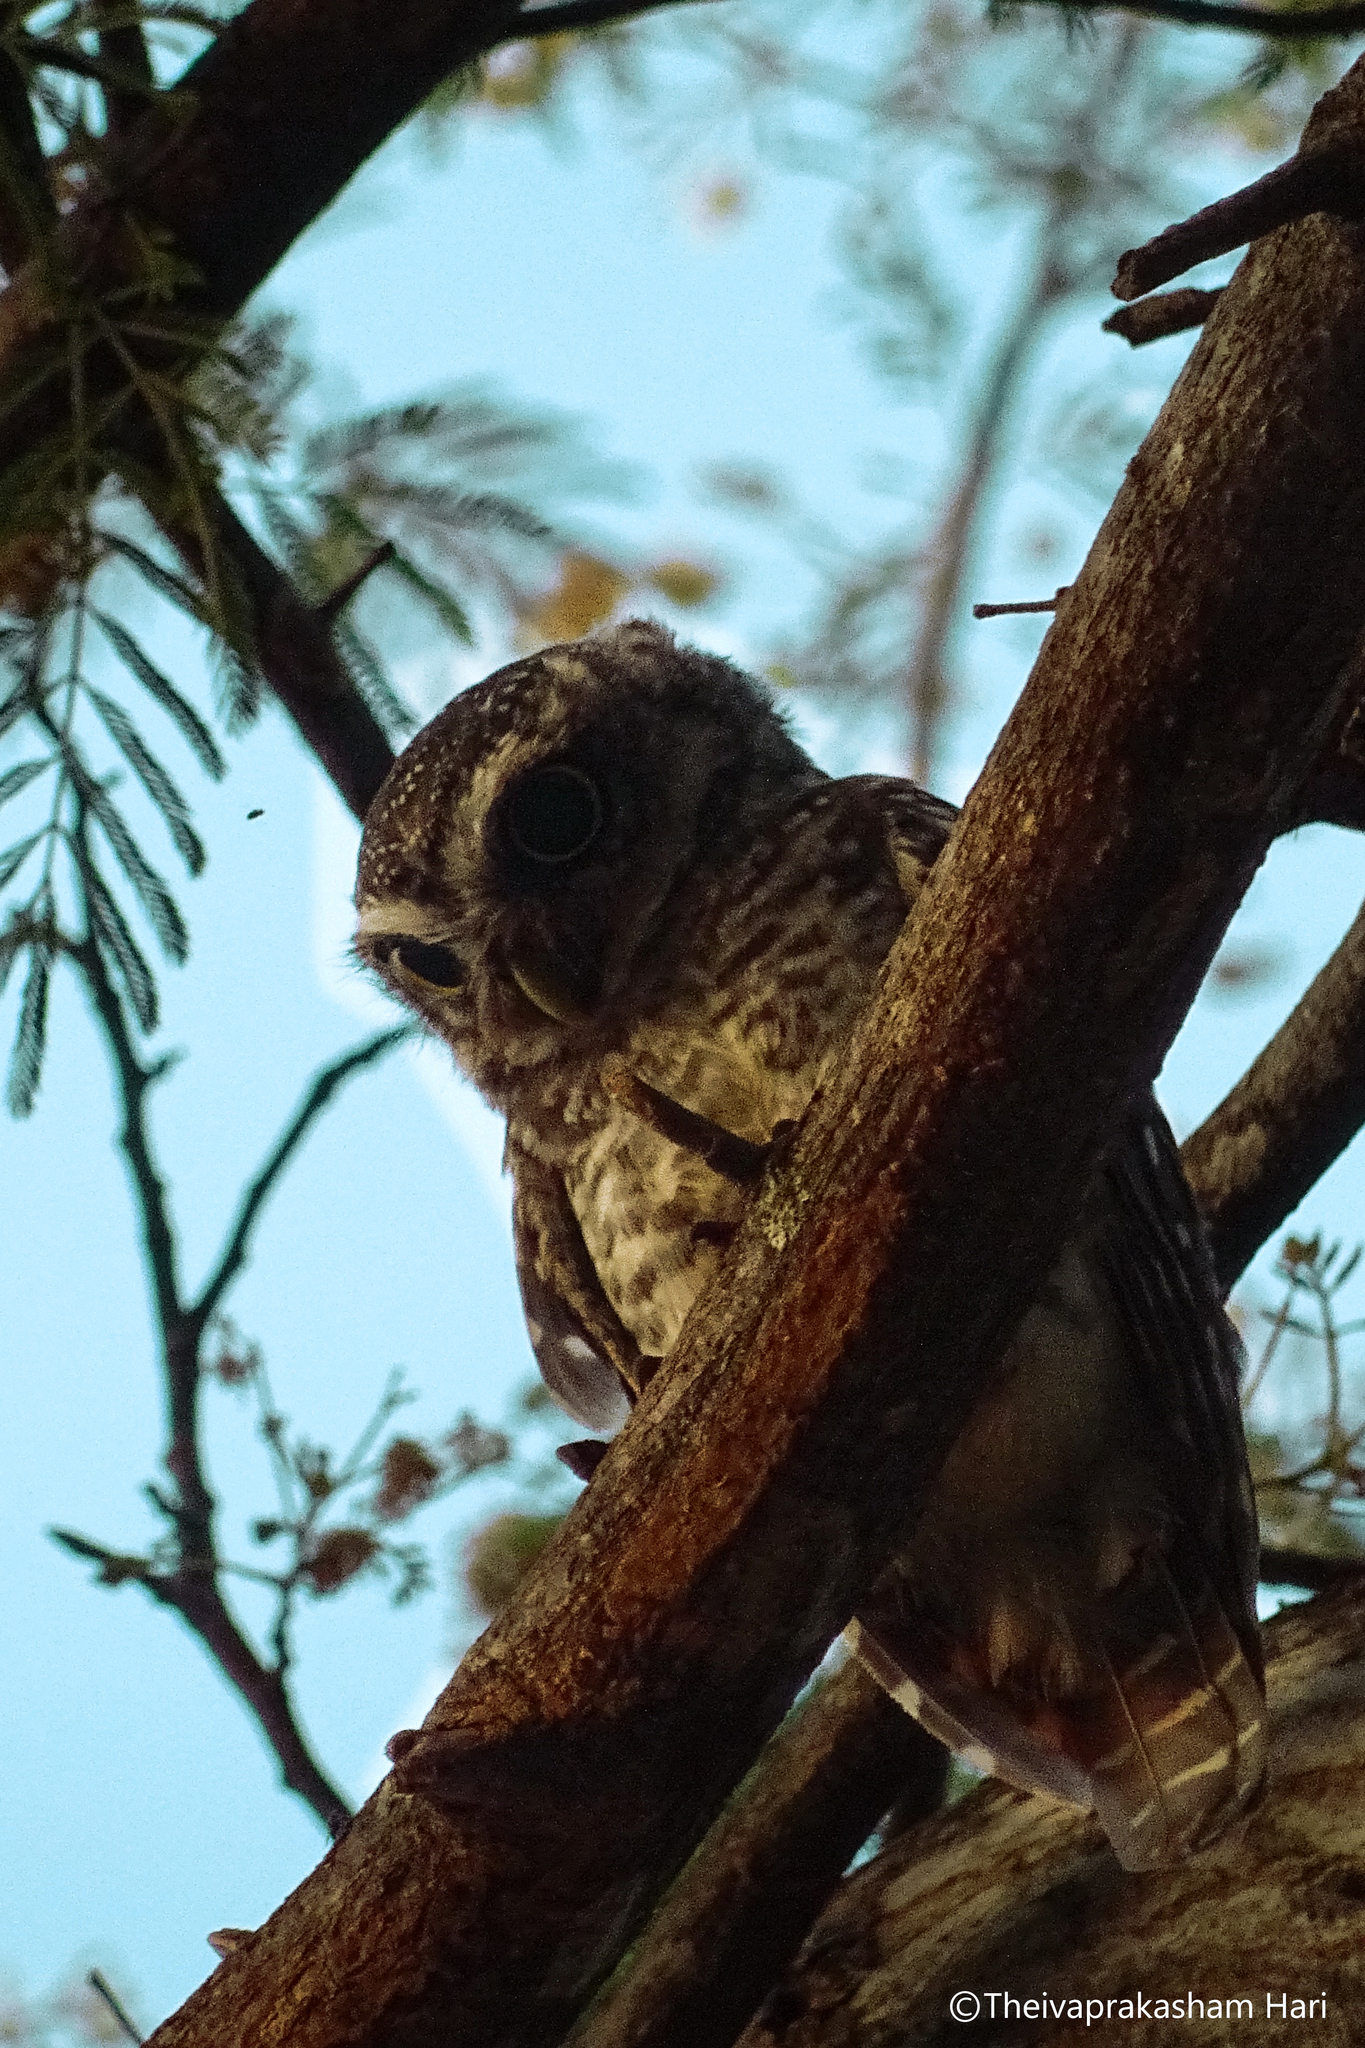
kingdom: Animalia
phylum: Chordata
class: Aves
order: Strigiformes
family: Strigidae
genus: Athene
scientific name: Athene brama
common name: Spotted owlet
